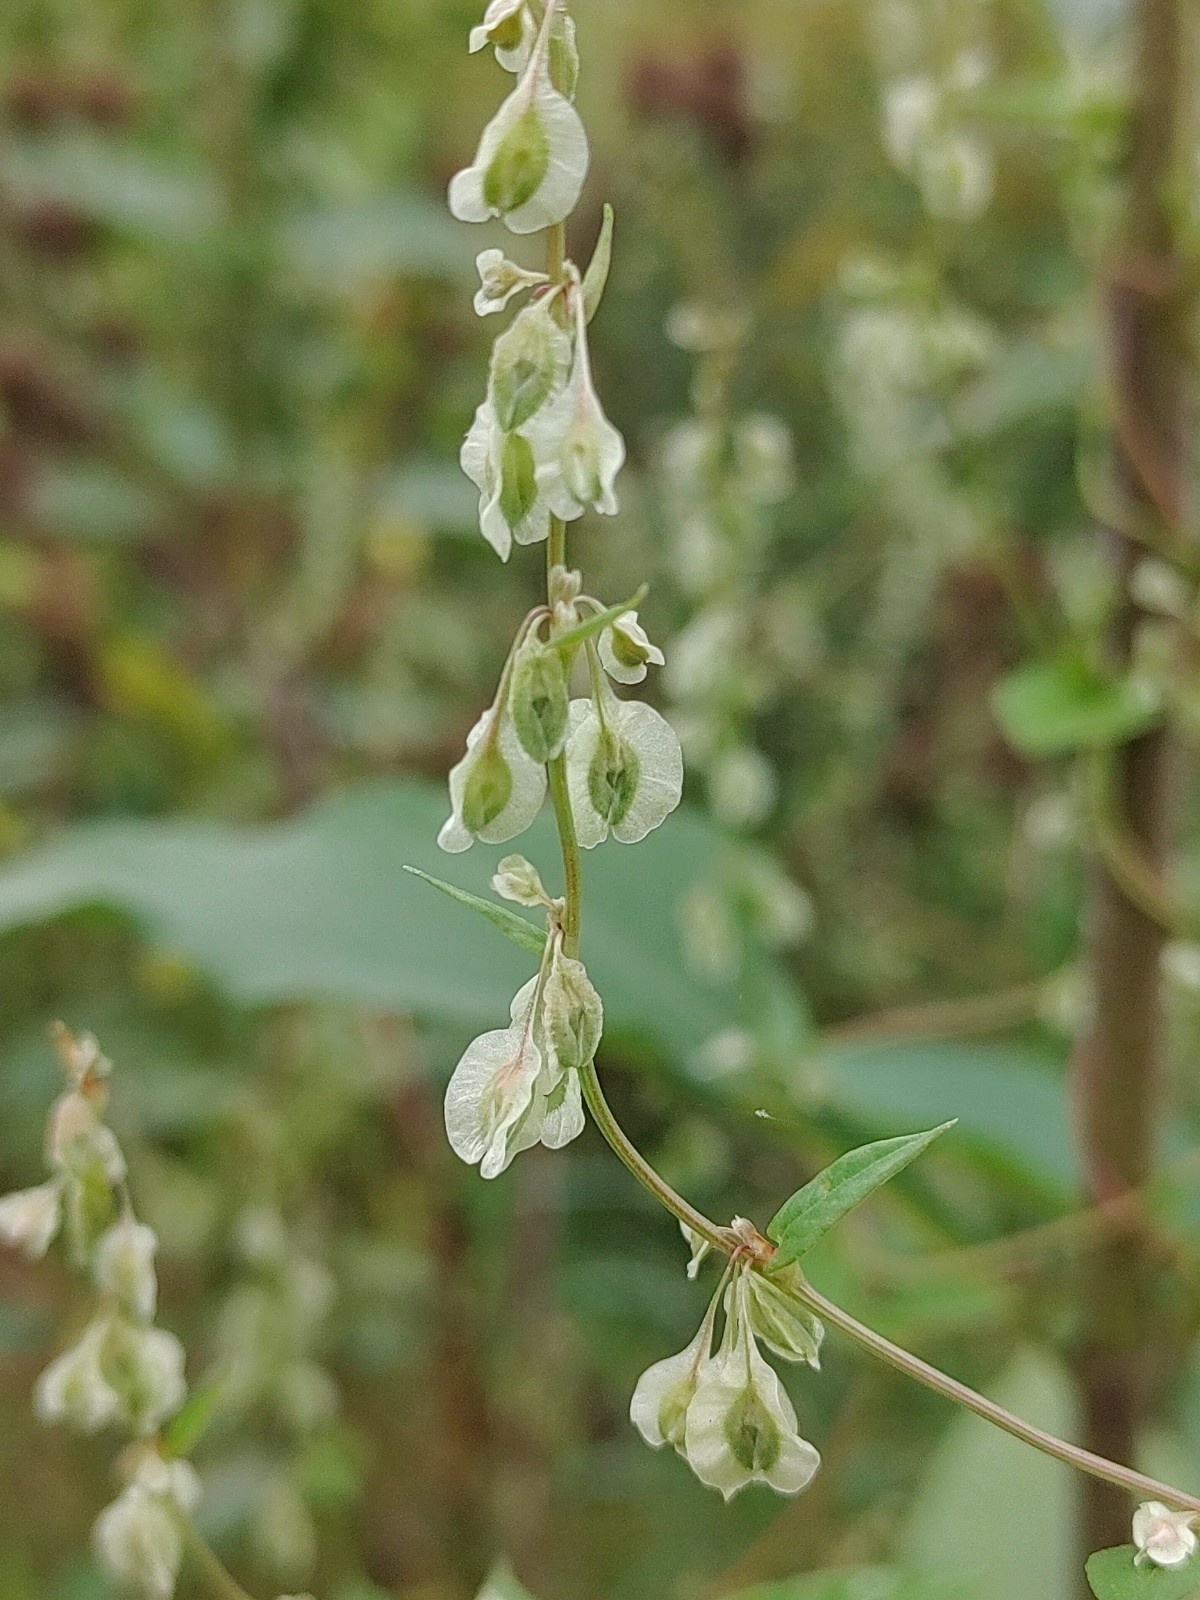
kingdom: Plantae
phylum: Tracheophyta
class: Magnoliopsida
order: Caryophyllales
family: Polygonaceae
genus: Fallopia
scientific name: Fallopia dumetorum
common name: Copse-bindweed
